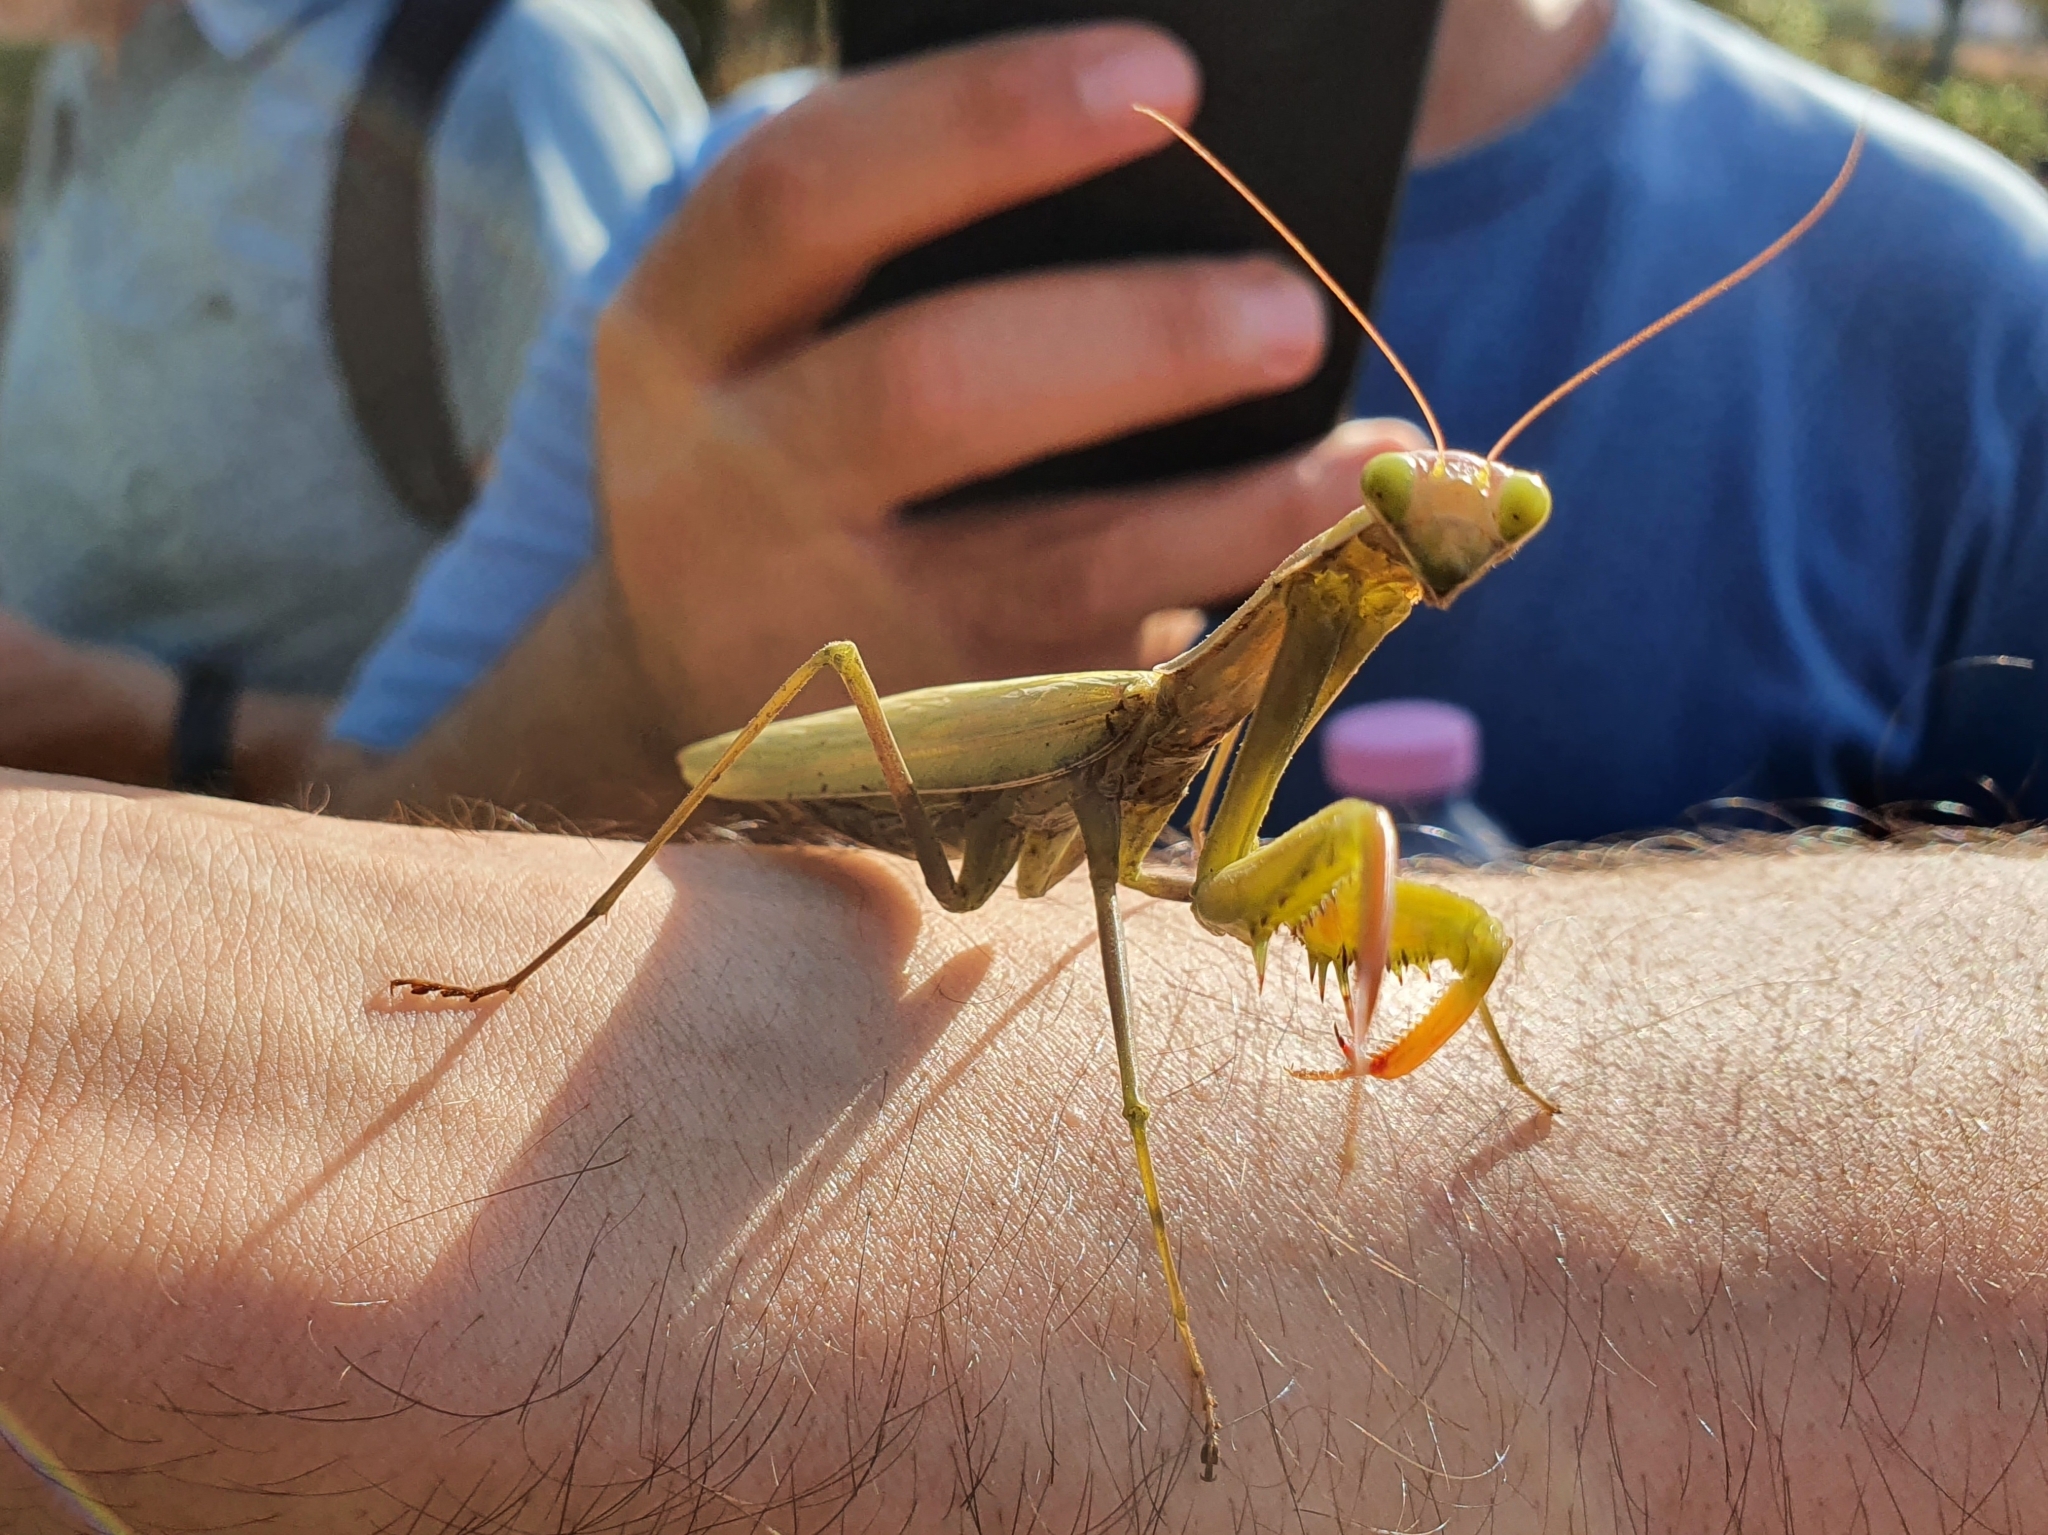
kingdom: Animalia
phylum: Arthropoda
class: Insecta
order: Mantodea
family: Mantidae
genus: Mantis
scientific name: Mantis religiosa
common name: Praying mantis
